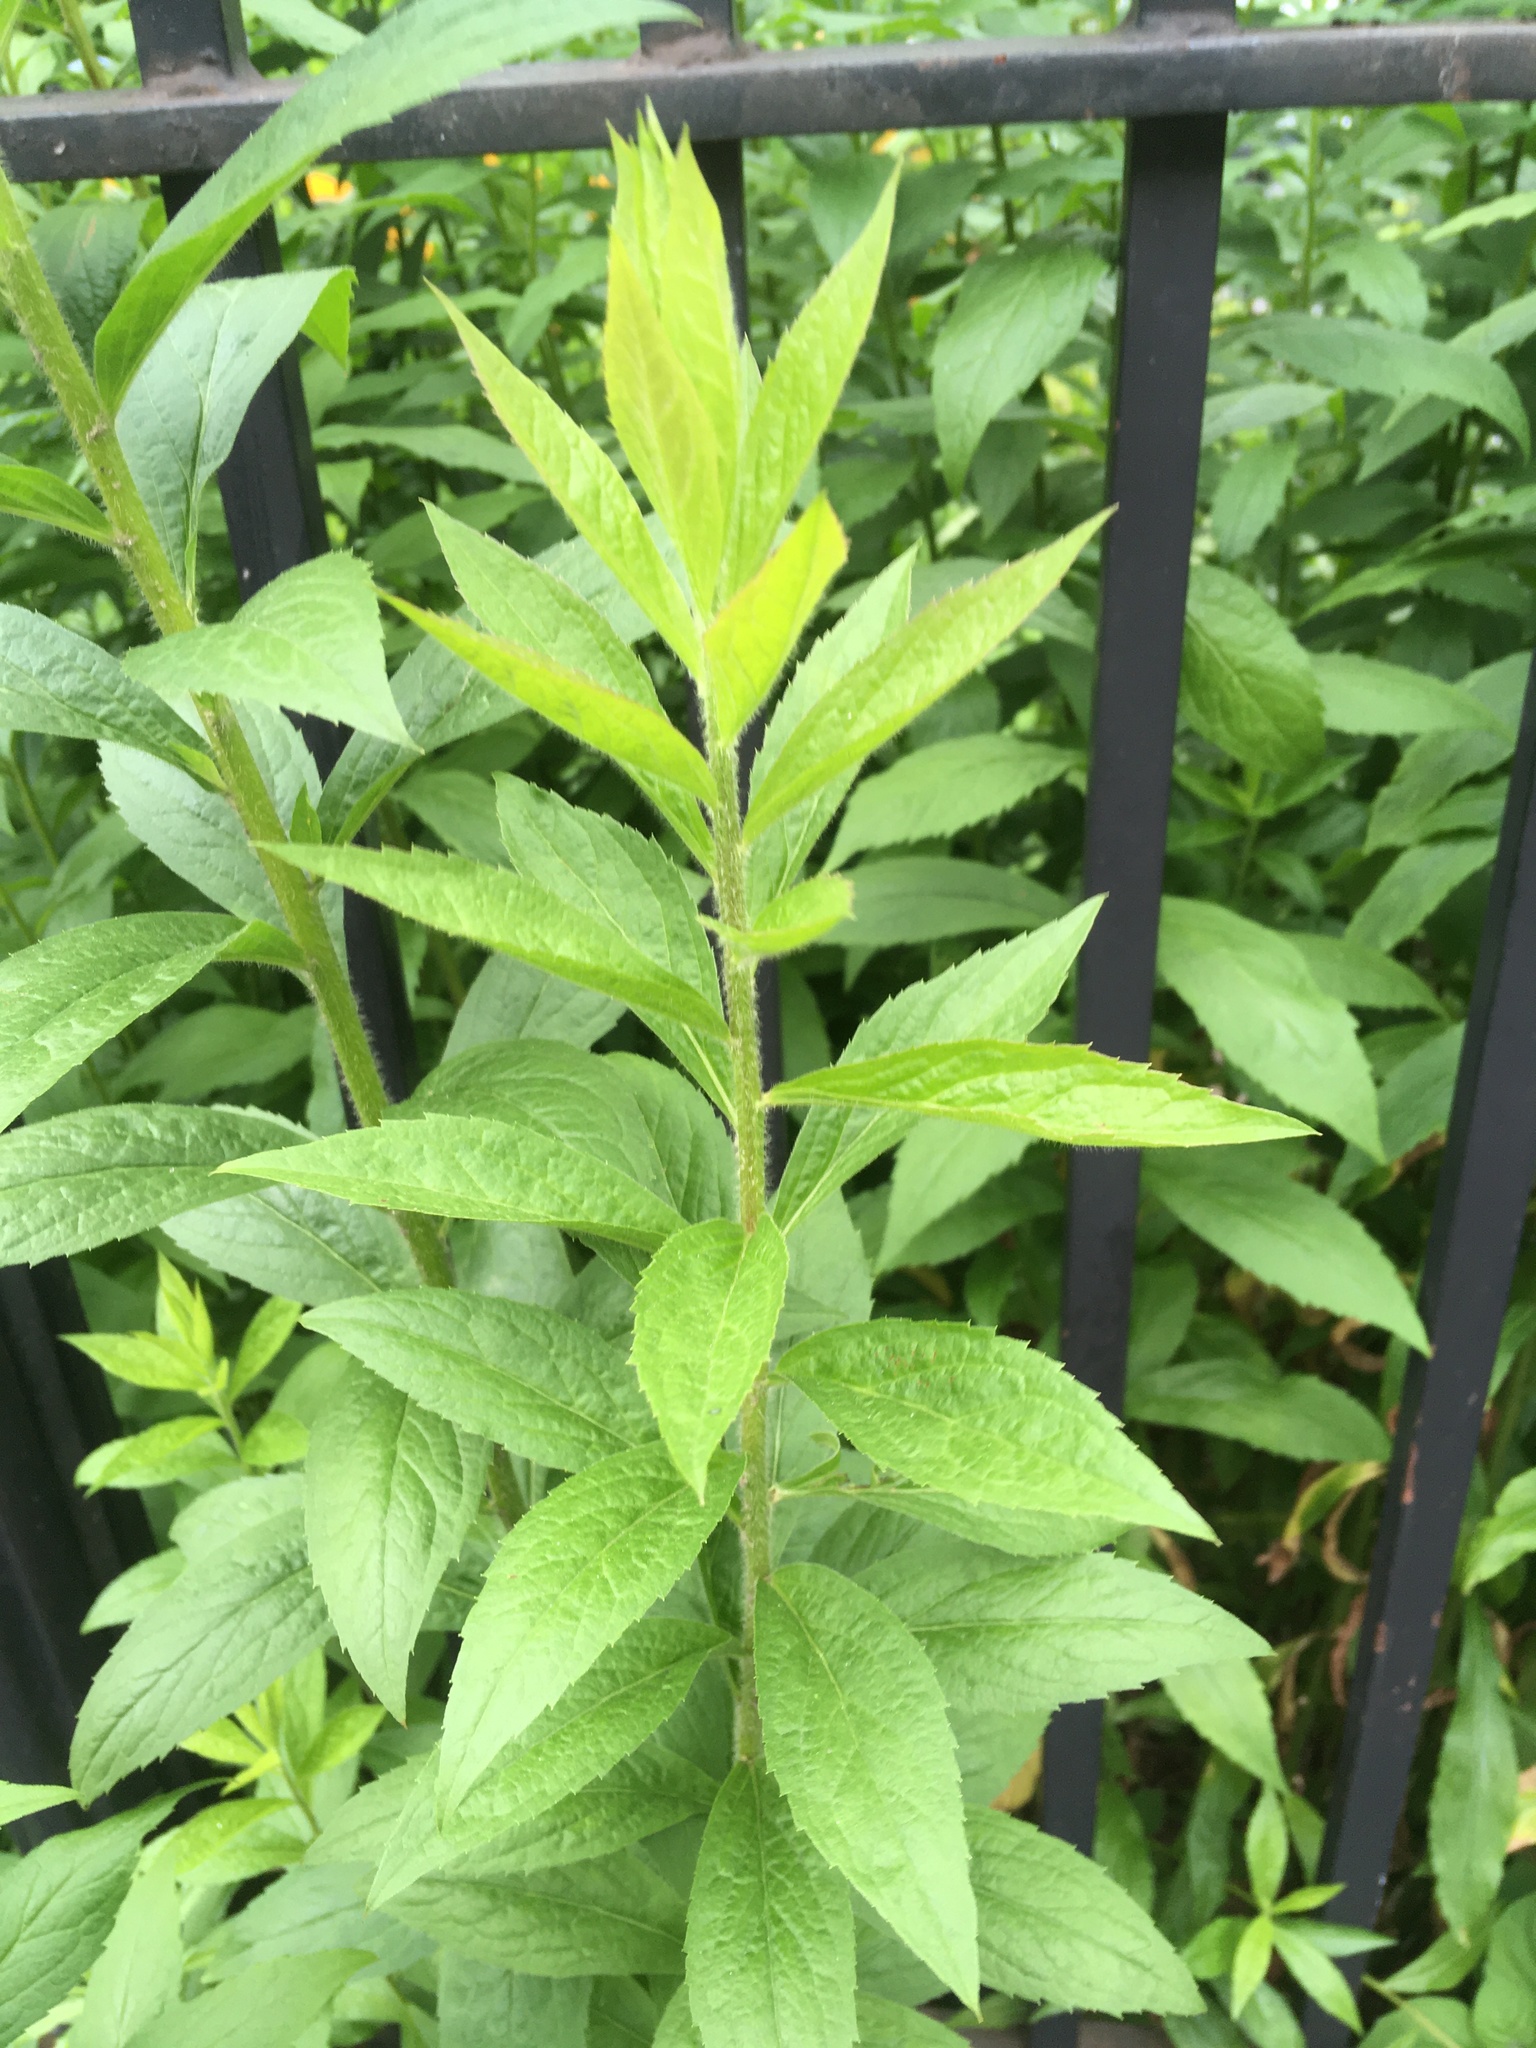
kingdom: Plantae
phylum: Tracheophyta
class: Magnoliopsida
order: Asterales
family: Asteraceae
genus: Solidago
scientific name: Solidago rugosa
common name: Rough-stemmed goldenrod
